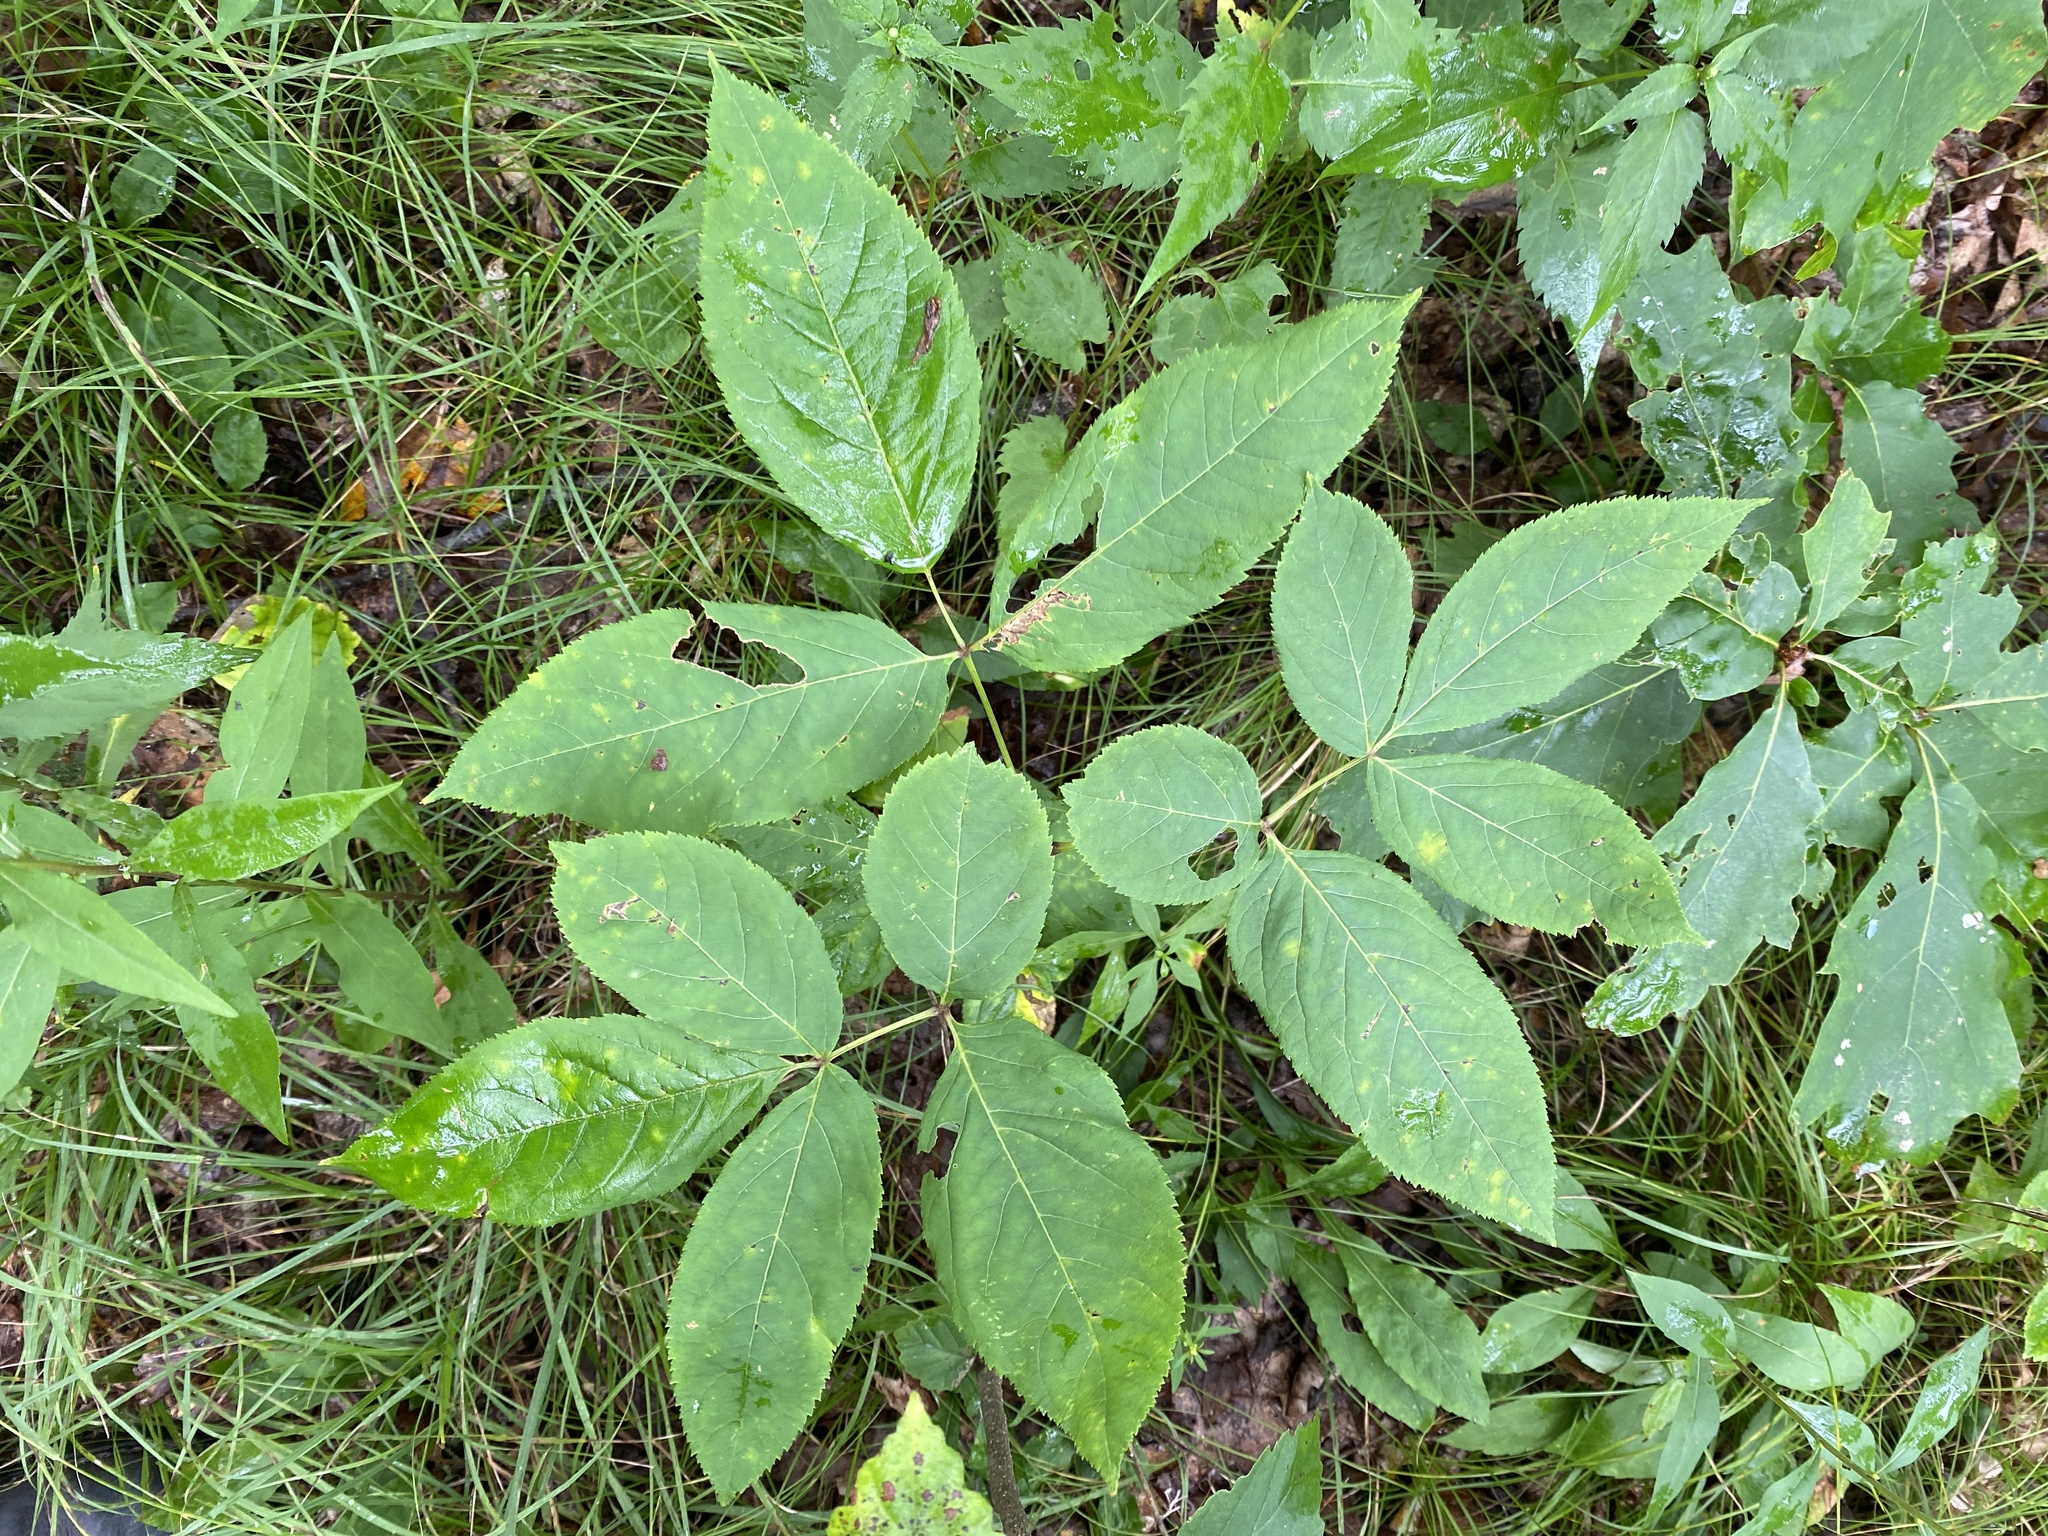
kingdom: Plantae
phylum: Tracheophyta
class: Magnoliopsida
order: Apiales
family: Araliaceae
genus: Aralia
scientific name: Aralia nudicaulis
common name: Wild sarsaparilla
